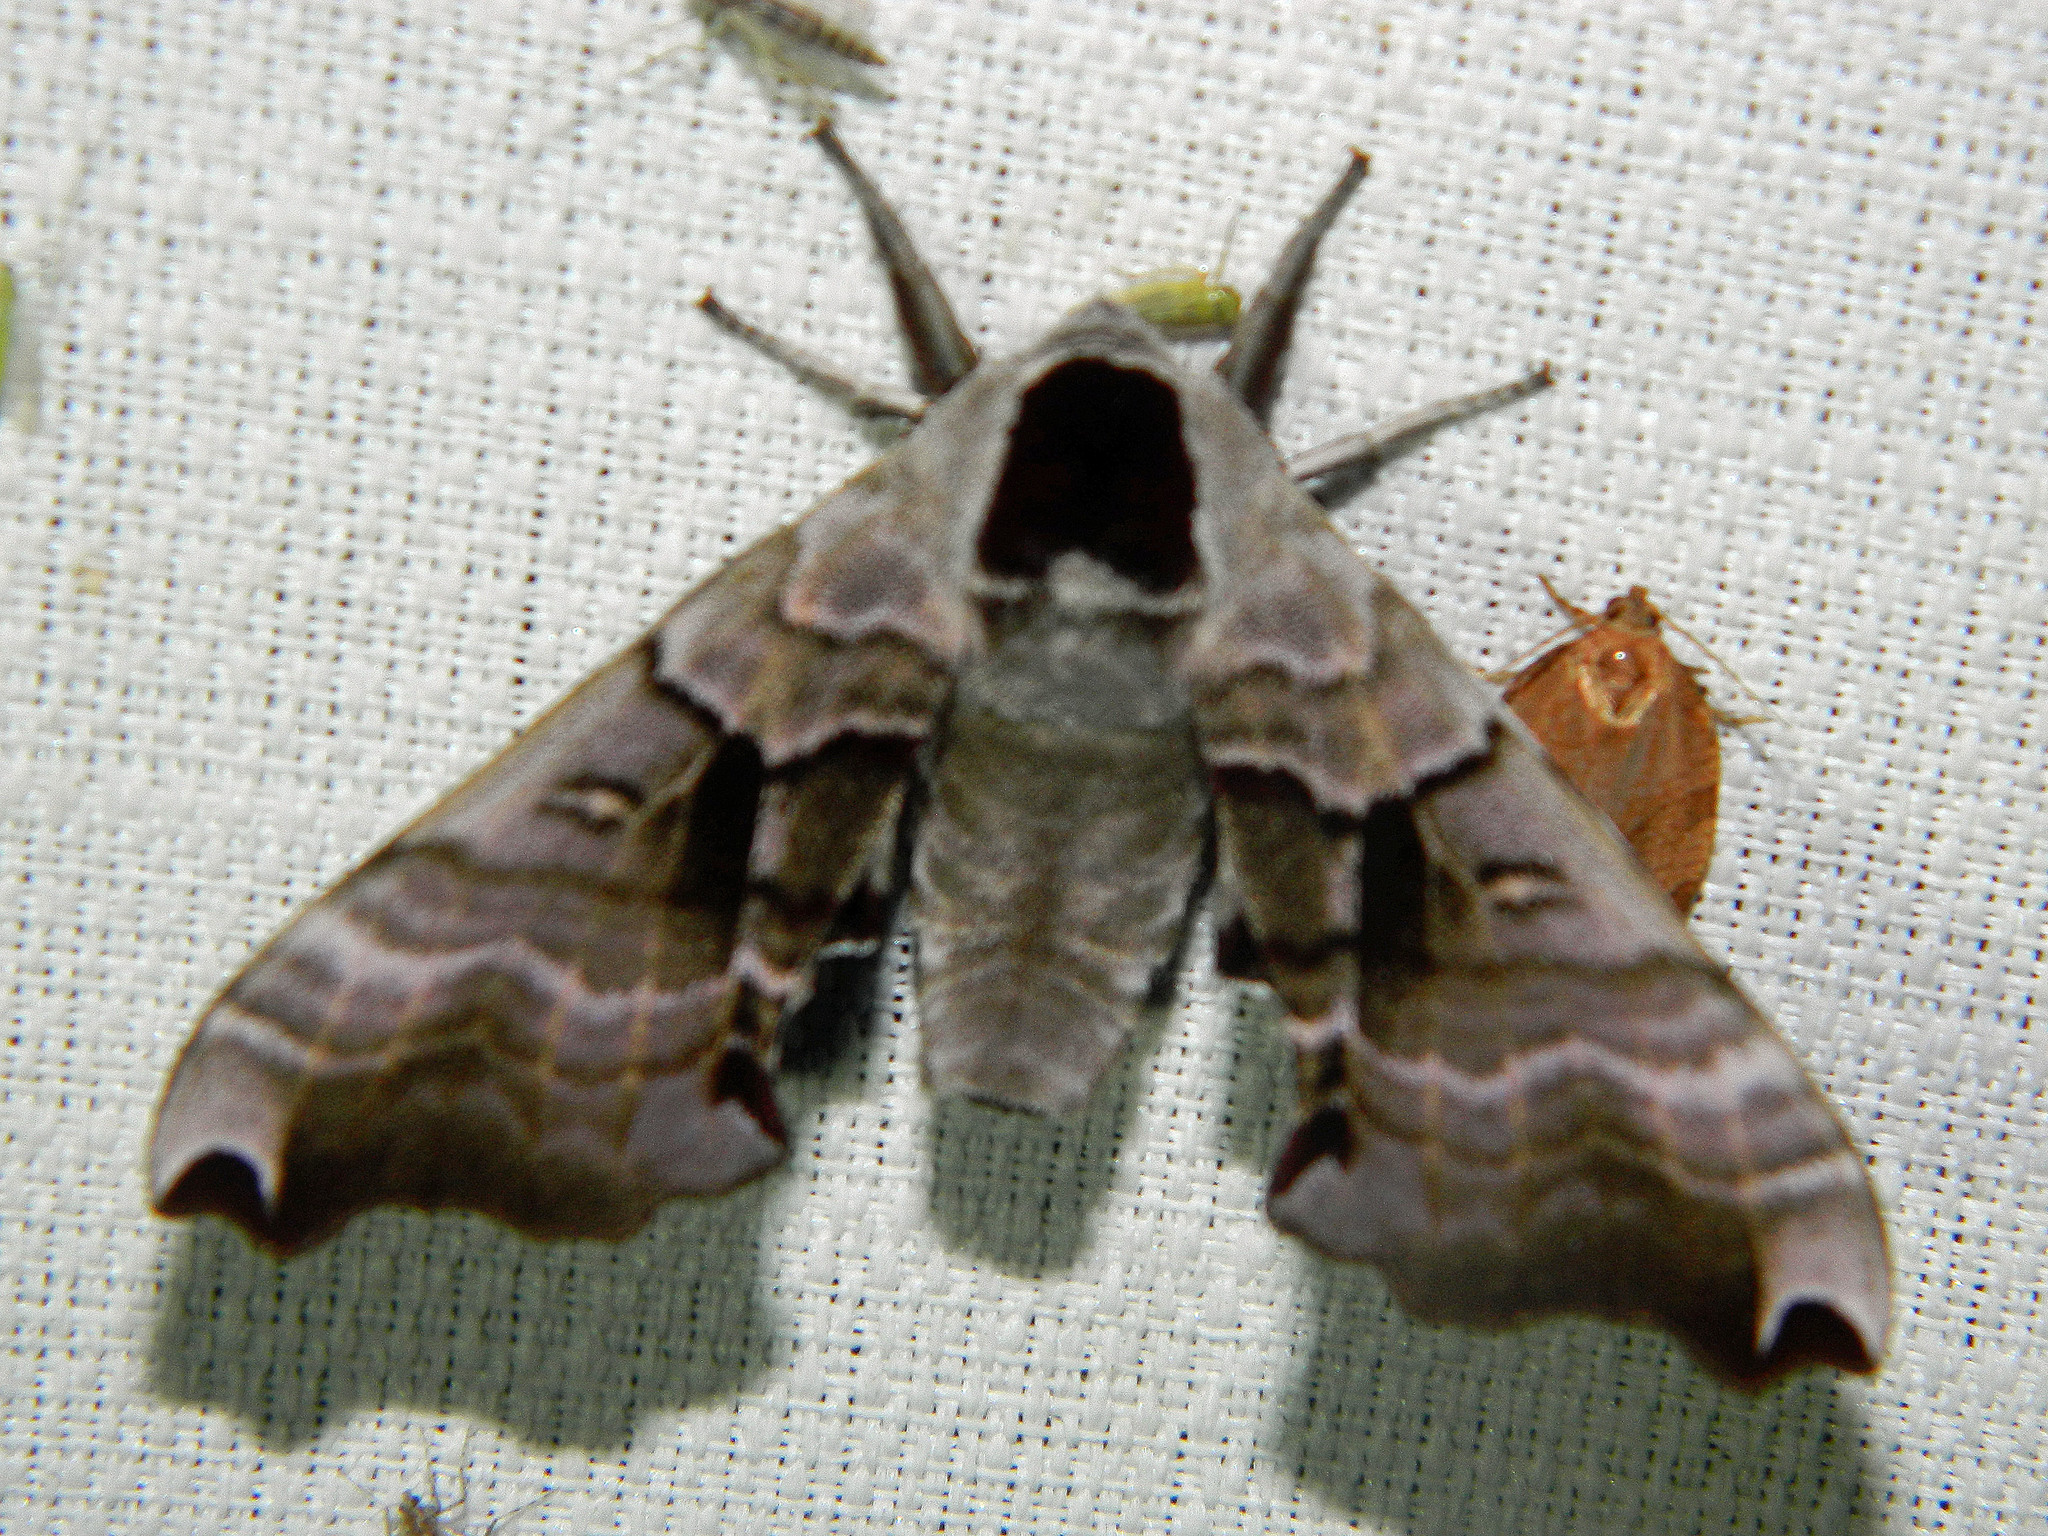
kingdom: Animalia
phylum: Arthropoda
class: Insecta
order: Lepidoptera
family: Sphingidae
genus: Smerinthus
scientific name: Smerinthus jamaicensis
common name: Twin spotted sphinx
